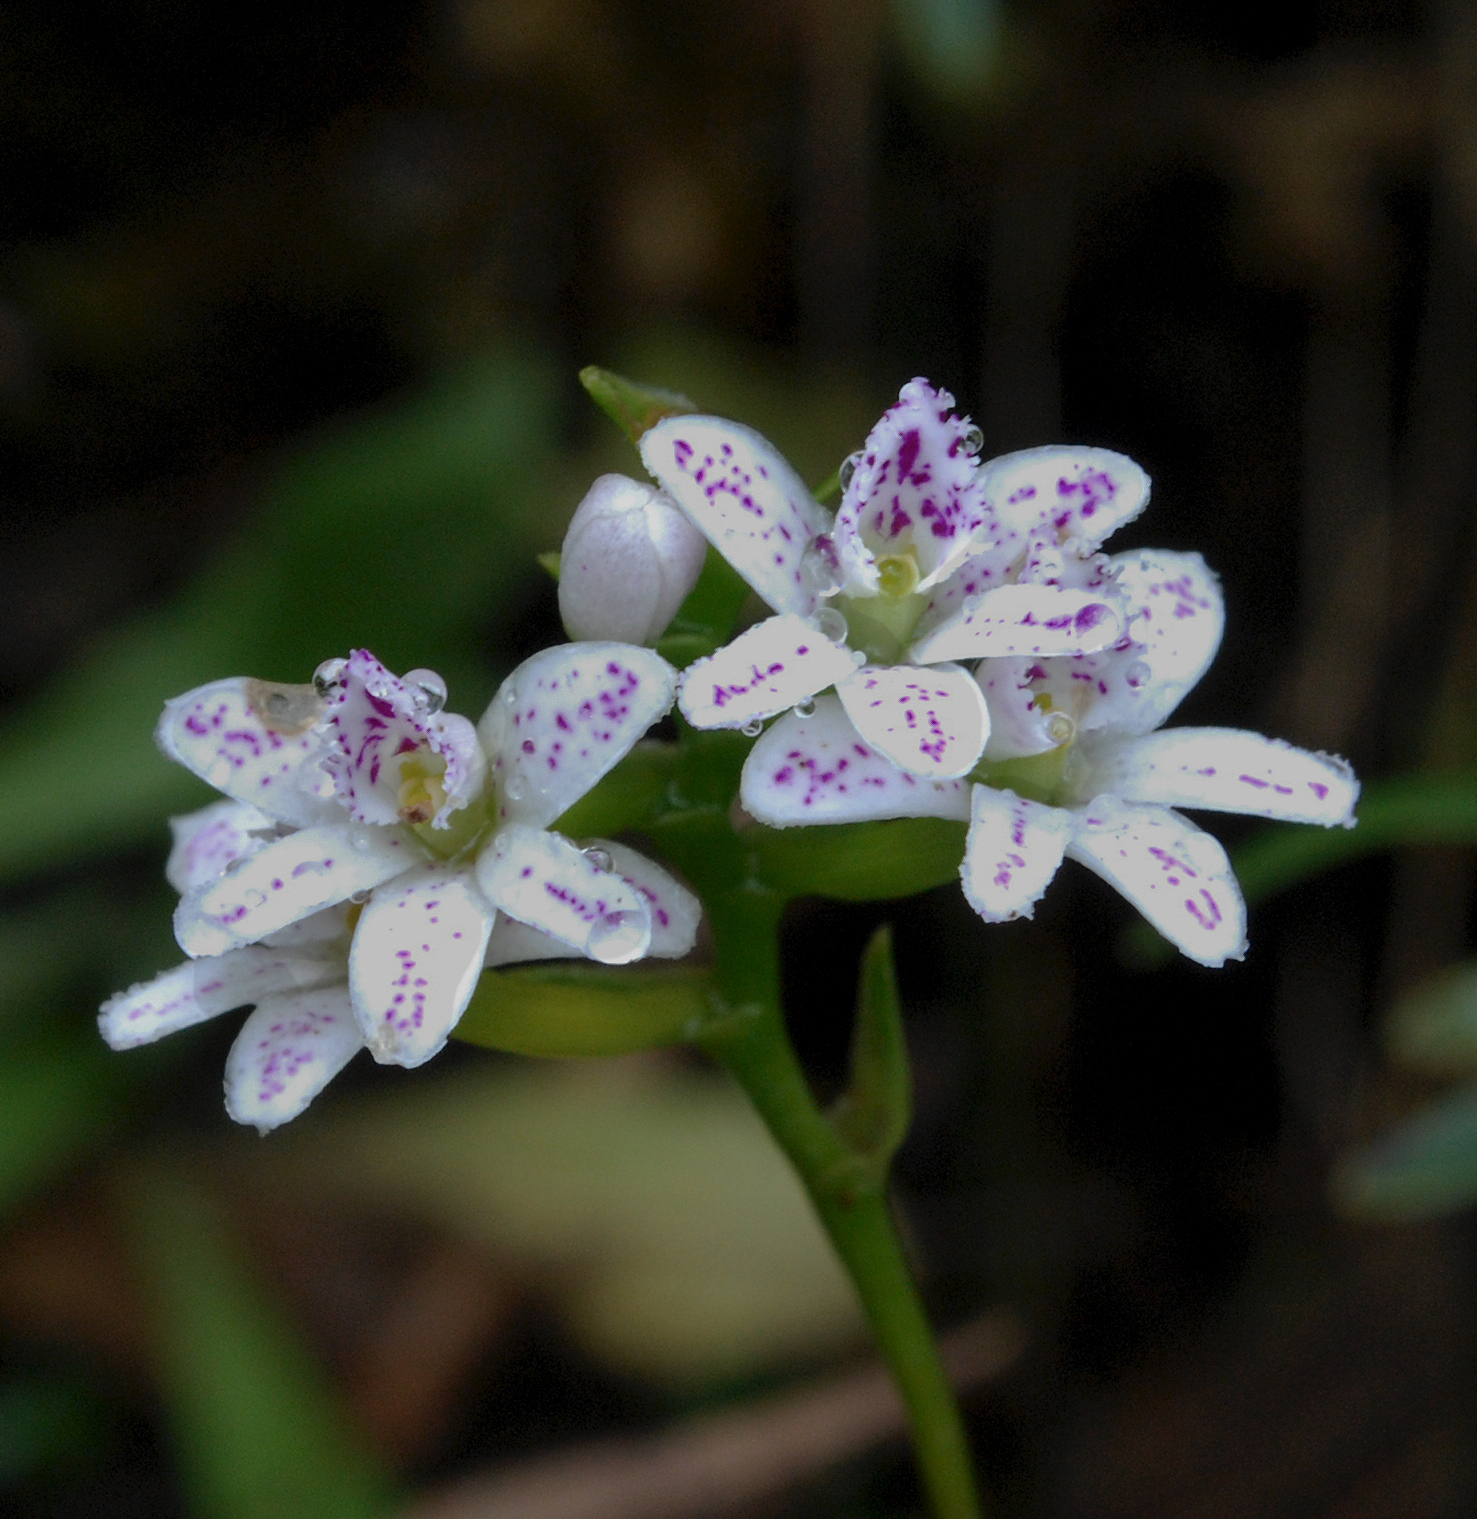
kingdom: Plantae
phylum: Tracheophyta
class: Liliopsida
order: Asparagales
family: Orchidaceae
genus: Epidendrum
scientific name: Epidendrum fimbriatum
